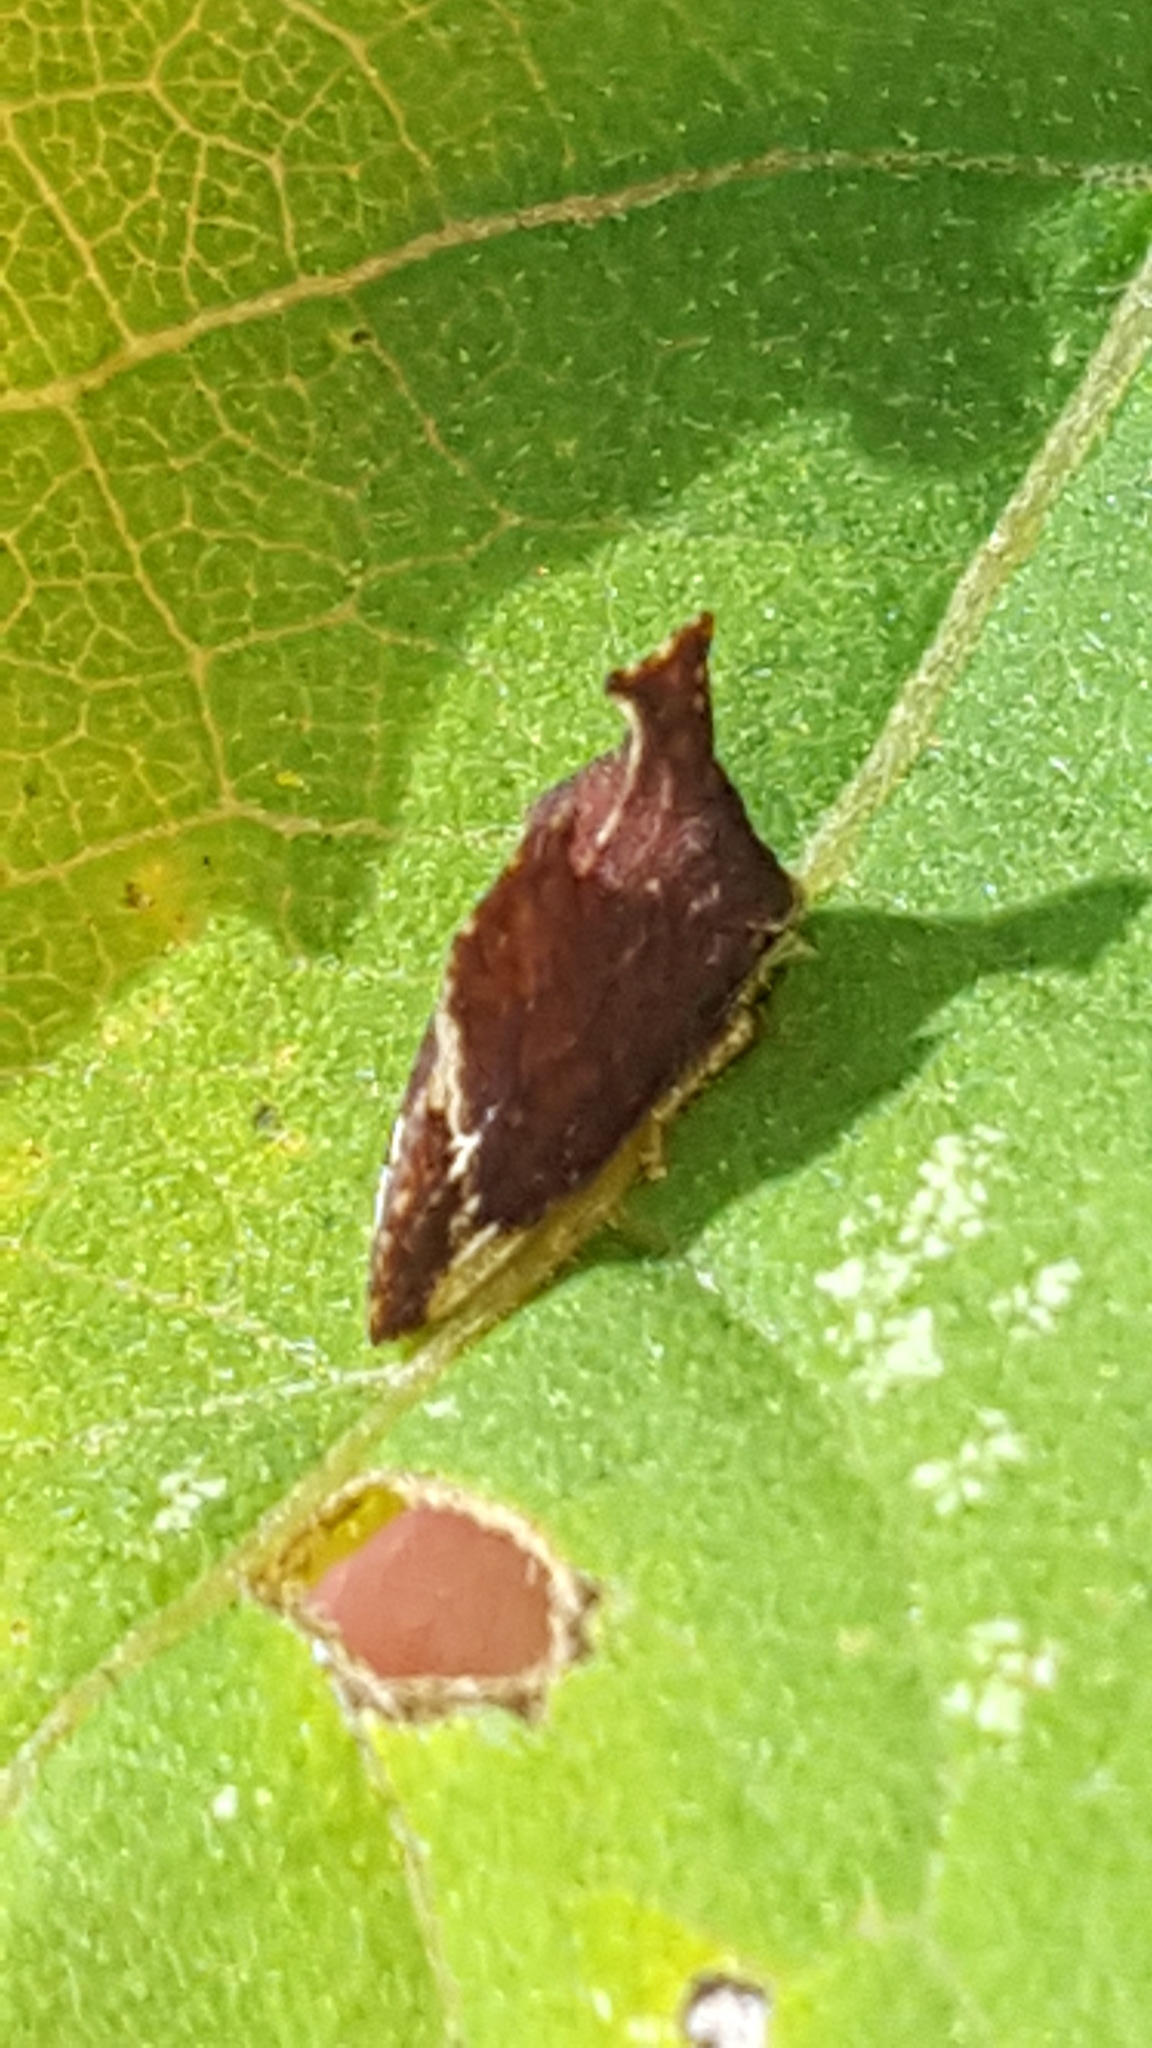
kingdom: Animalia
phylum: Arthropoda
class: Insecta
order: Hemiptera
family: Membracidae
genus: Entylia
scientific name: Entylia carinata
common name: Keeled treehopper
